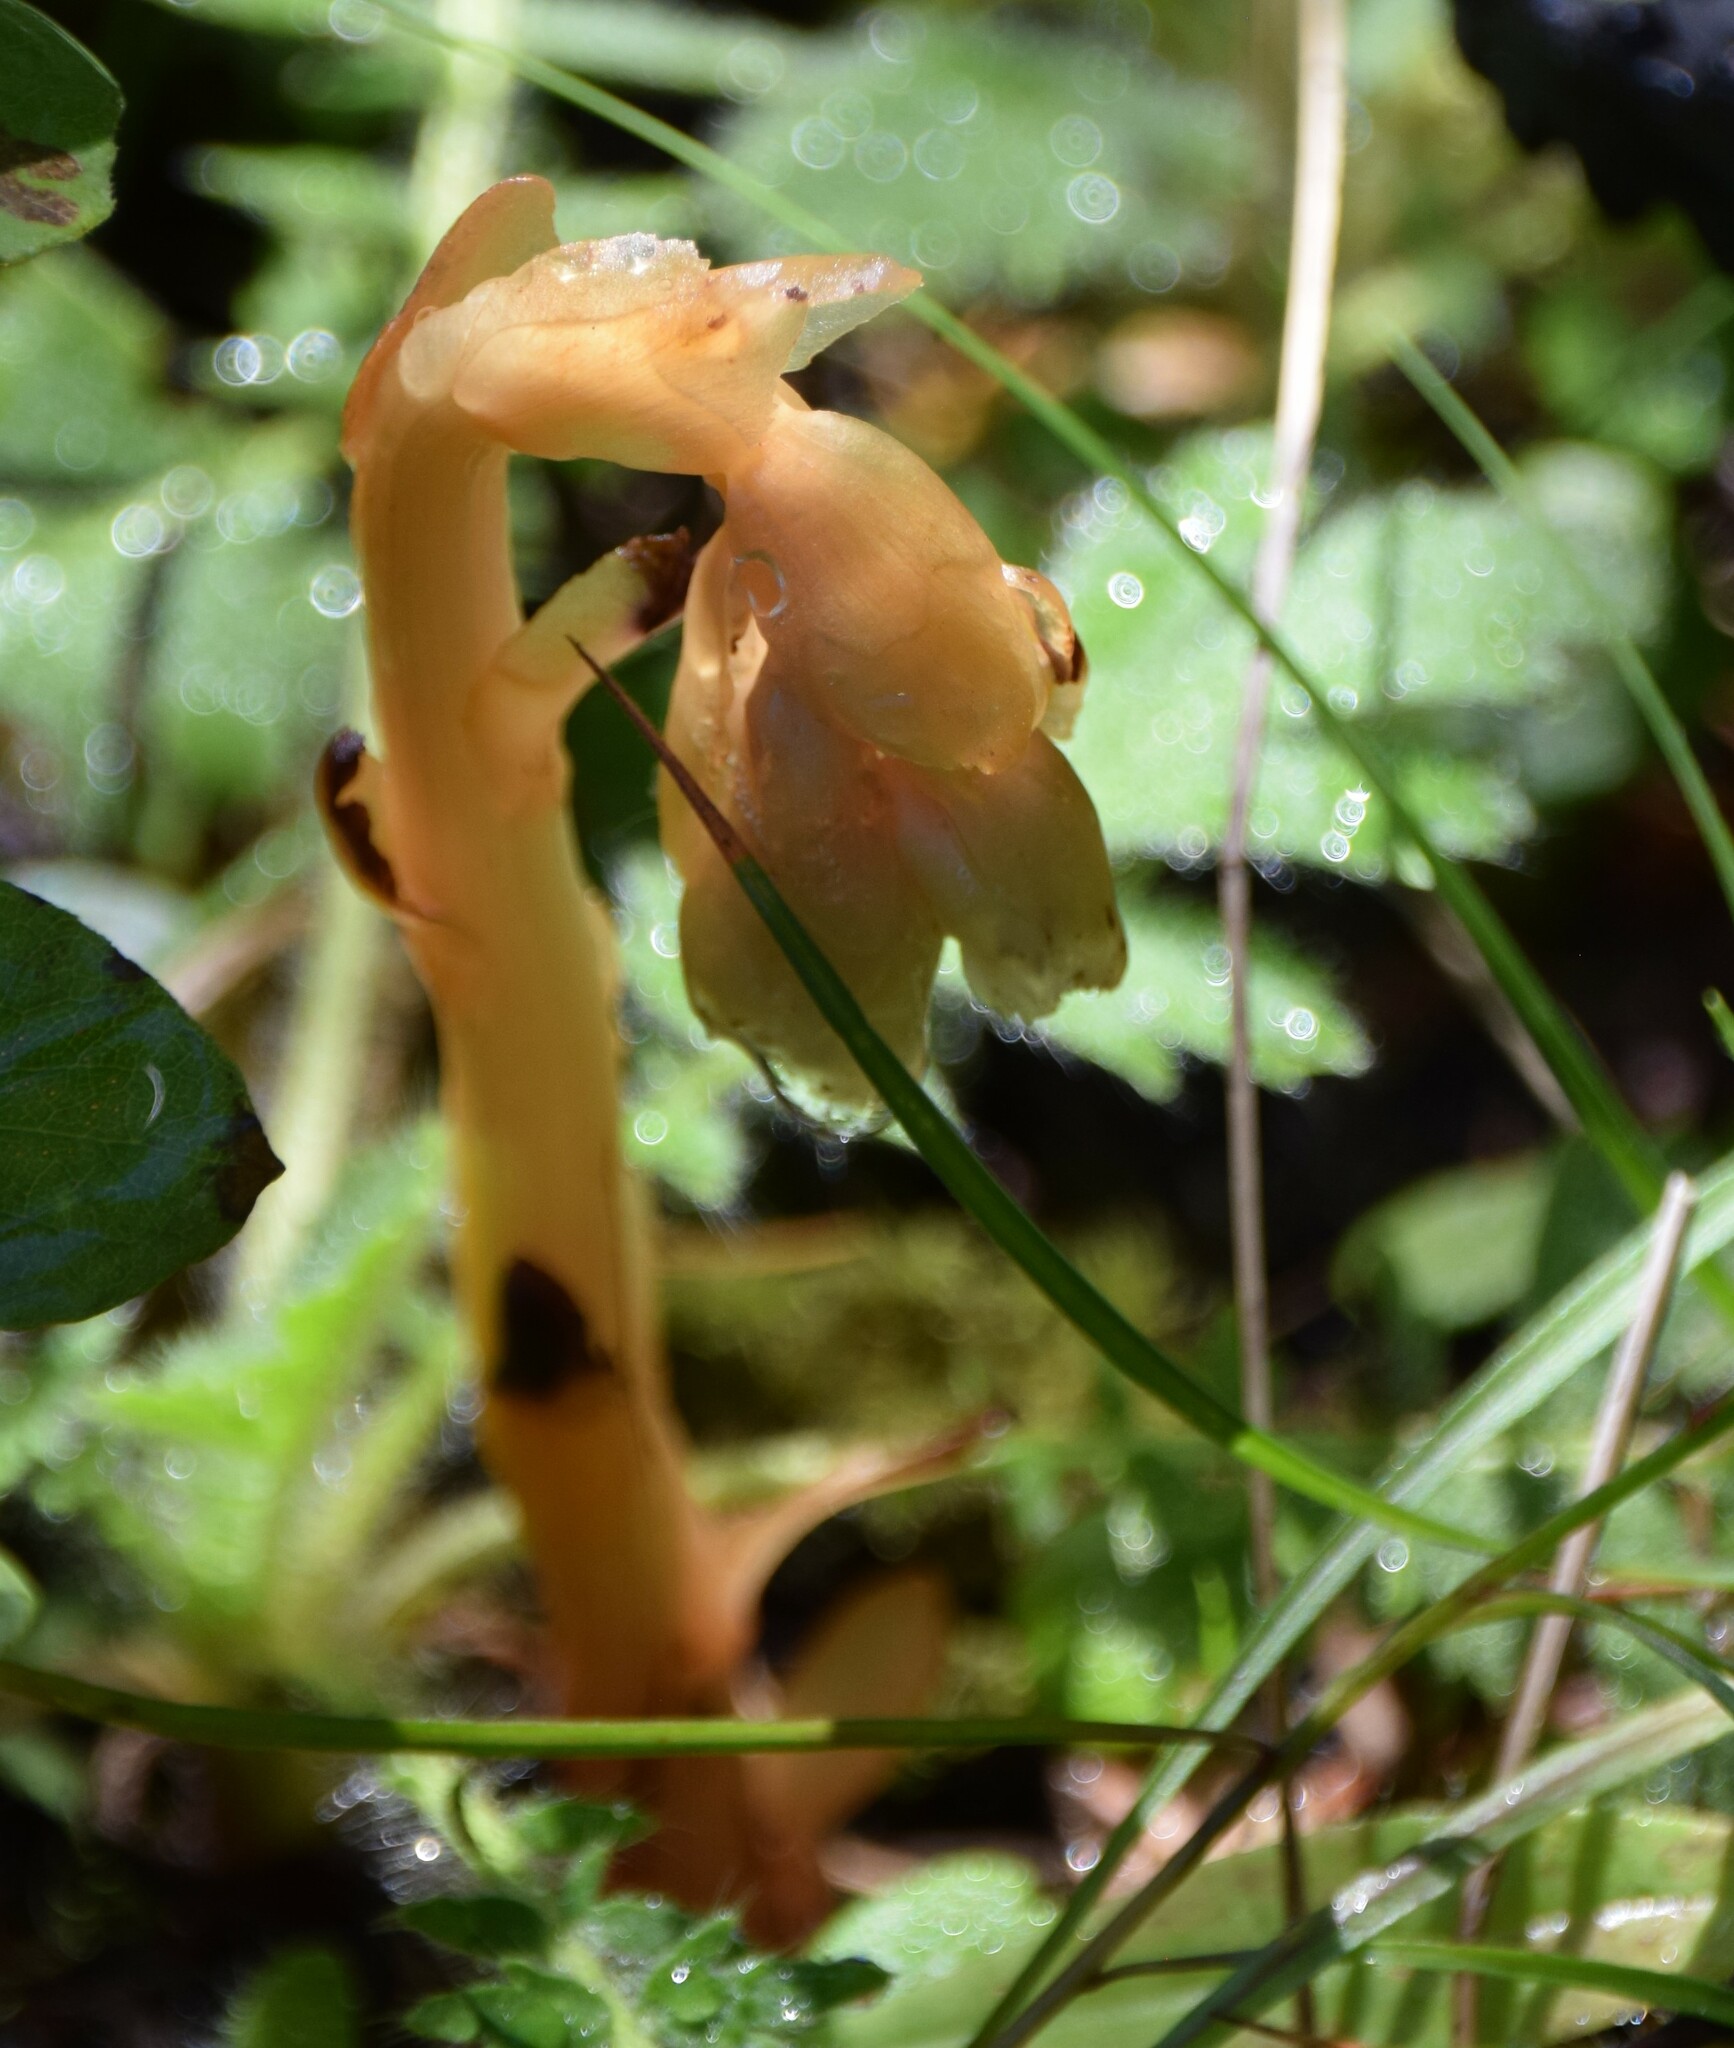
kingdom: Plantae
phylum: Tracheophyta
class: Magnoliopsida
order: Ericales
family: Ericaceae
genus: Hypopitys
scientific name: Hypopitys monotropa
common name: Yellow bird's-nest
